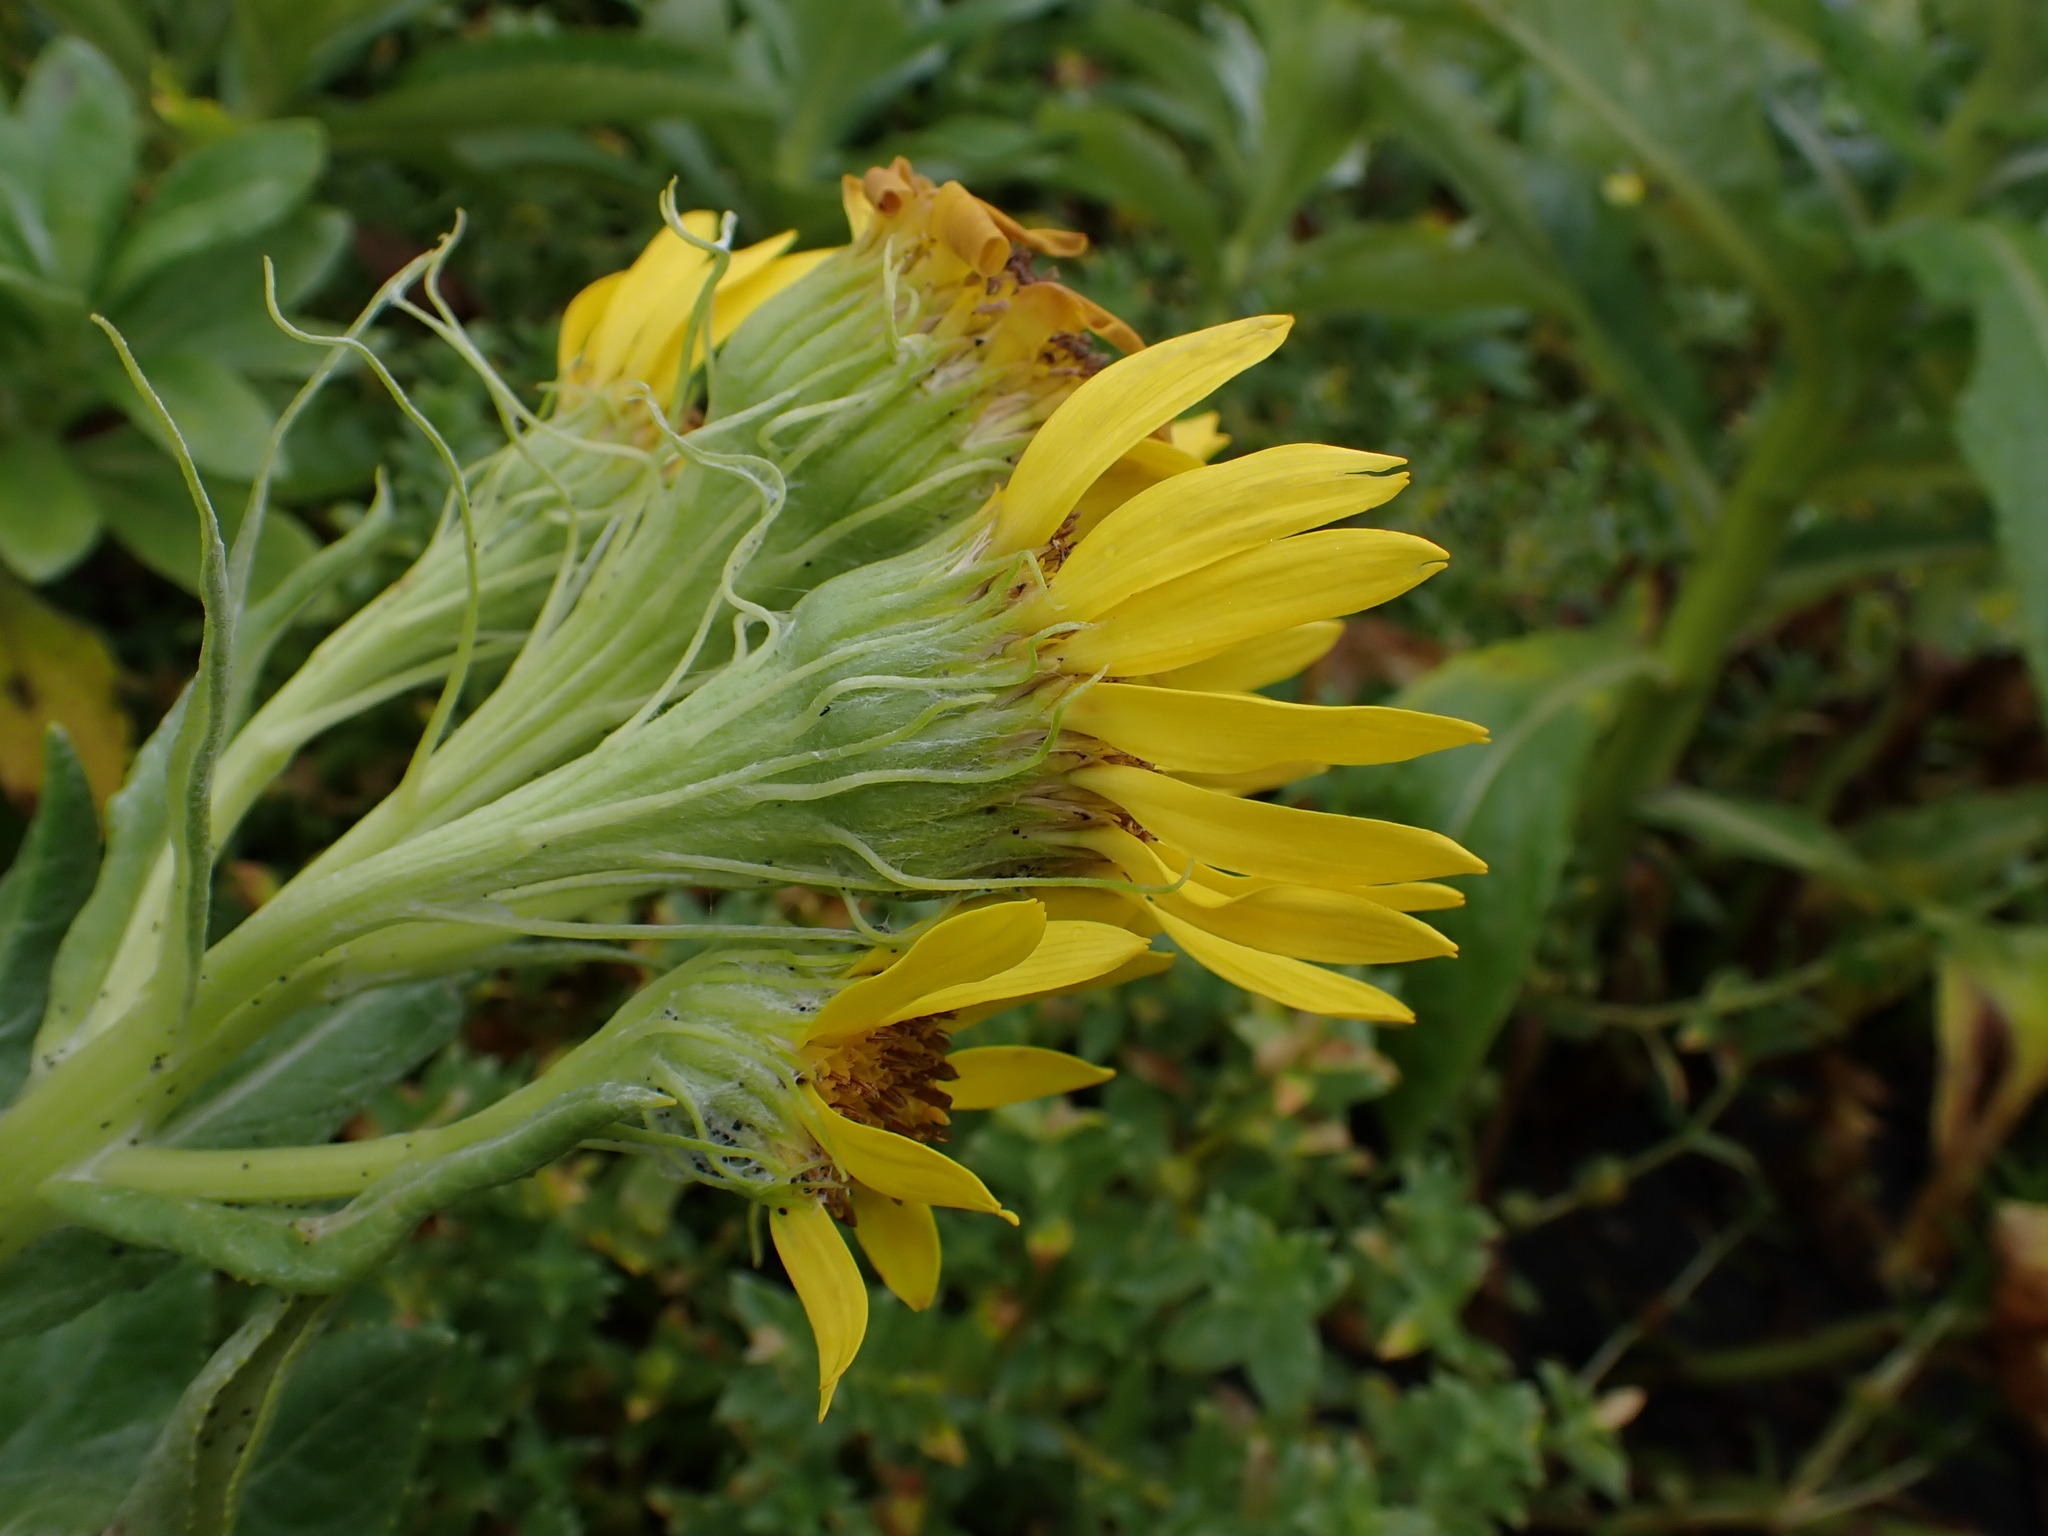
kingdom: Plantae
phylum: Tracheophyta
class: Magnoliopsida
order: Asterales
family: Asteraceae
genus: Jacobaea
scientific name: Jacobaea pseudoarnica
